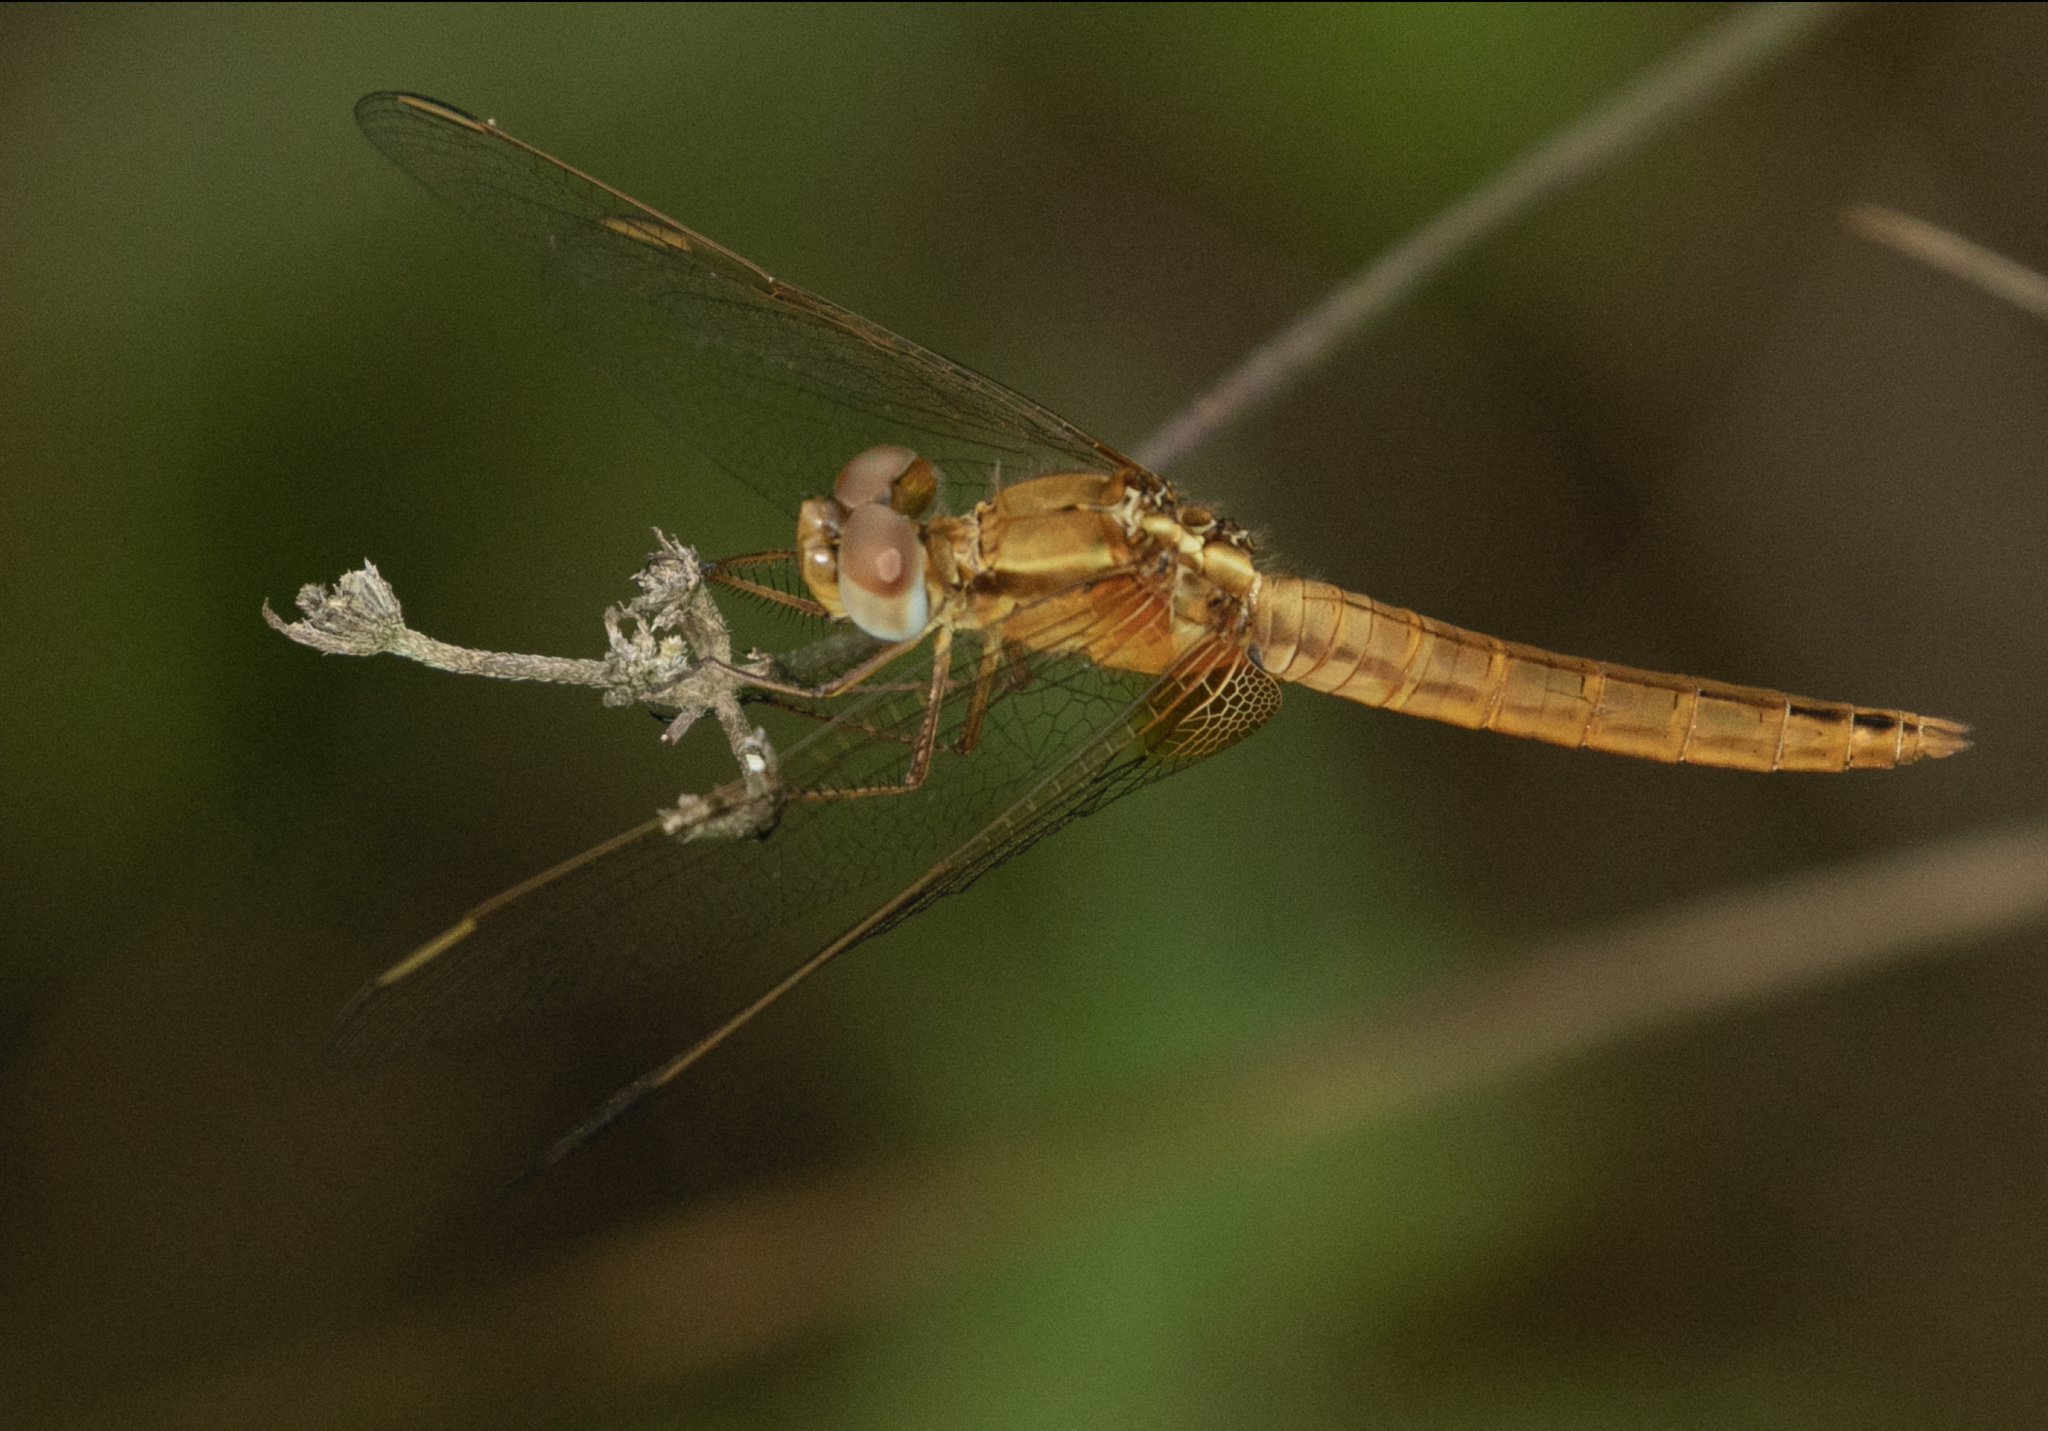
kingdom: Animalia
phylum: Arthropoda
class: Insecta
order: Odonata
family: Libellulidae
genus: Crocothemis
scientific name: Crocothemis erythraea
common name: Scarlet dragonfly
